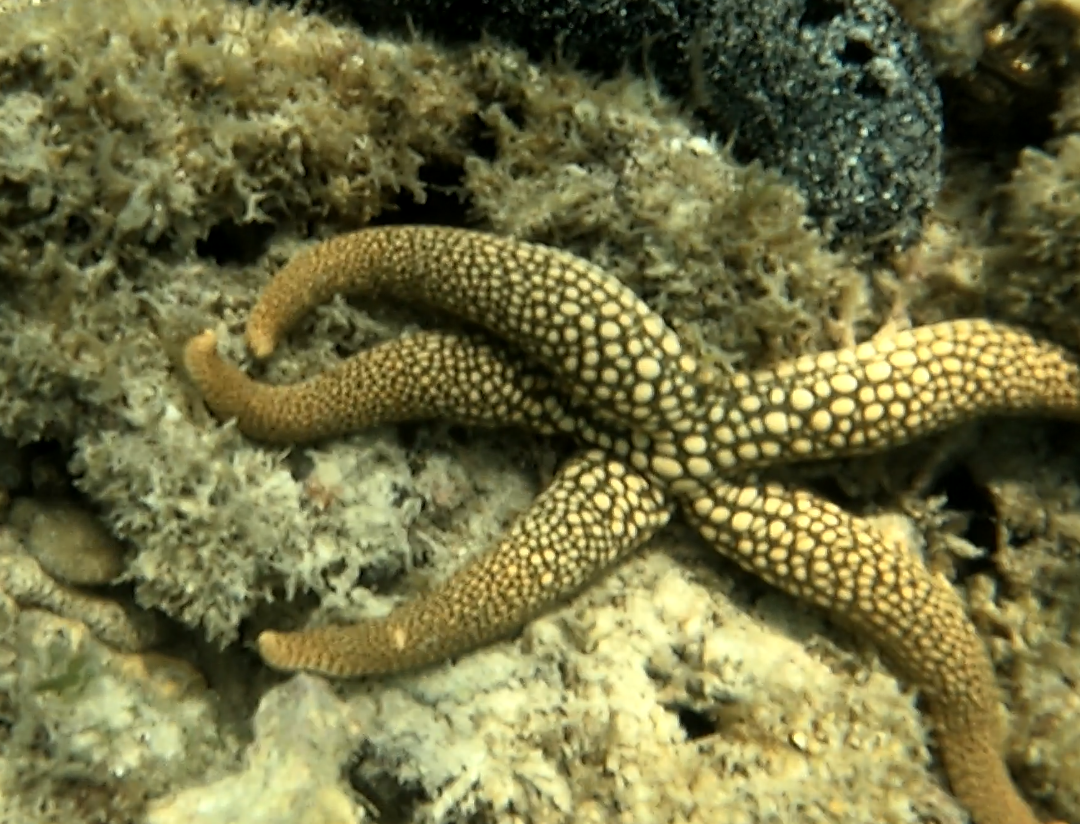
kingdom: Animalia
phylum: Echinodermata
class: Asteroidea
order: Valvatida
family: Ophidiasteridae
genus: Nardoa
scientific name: Nardoa novaecaledoniae
